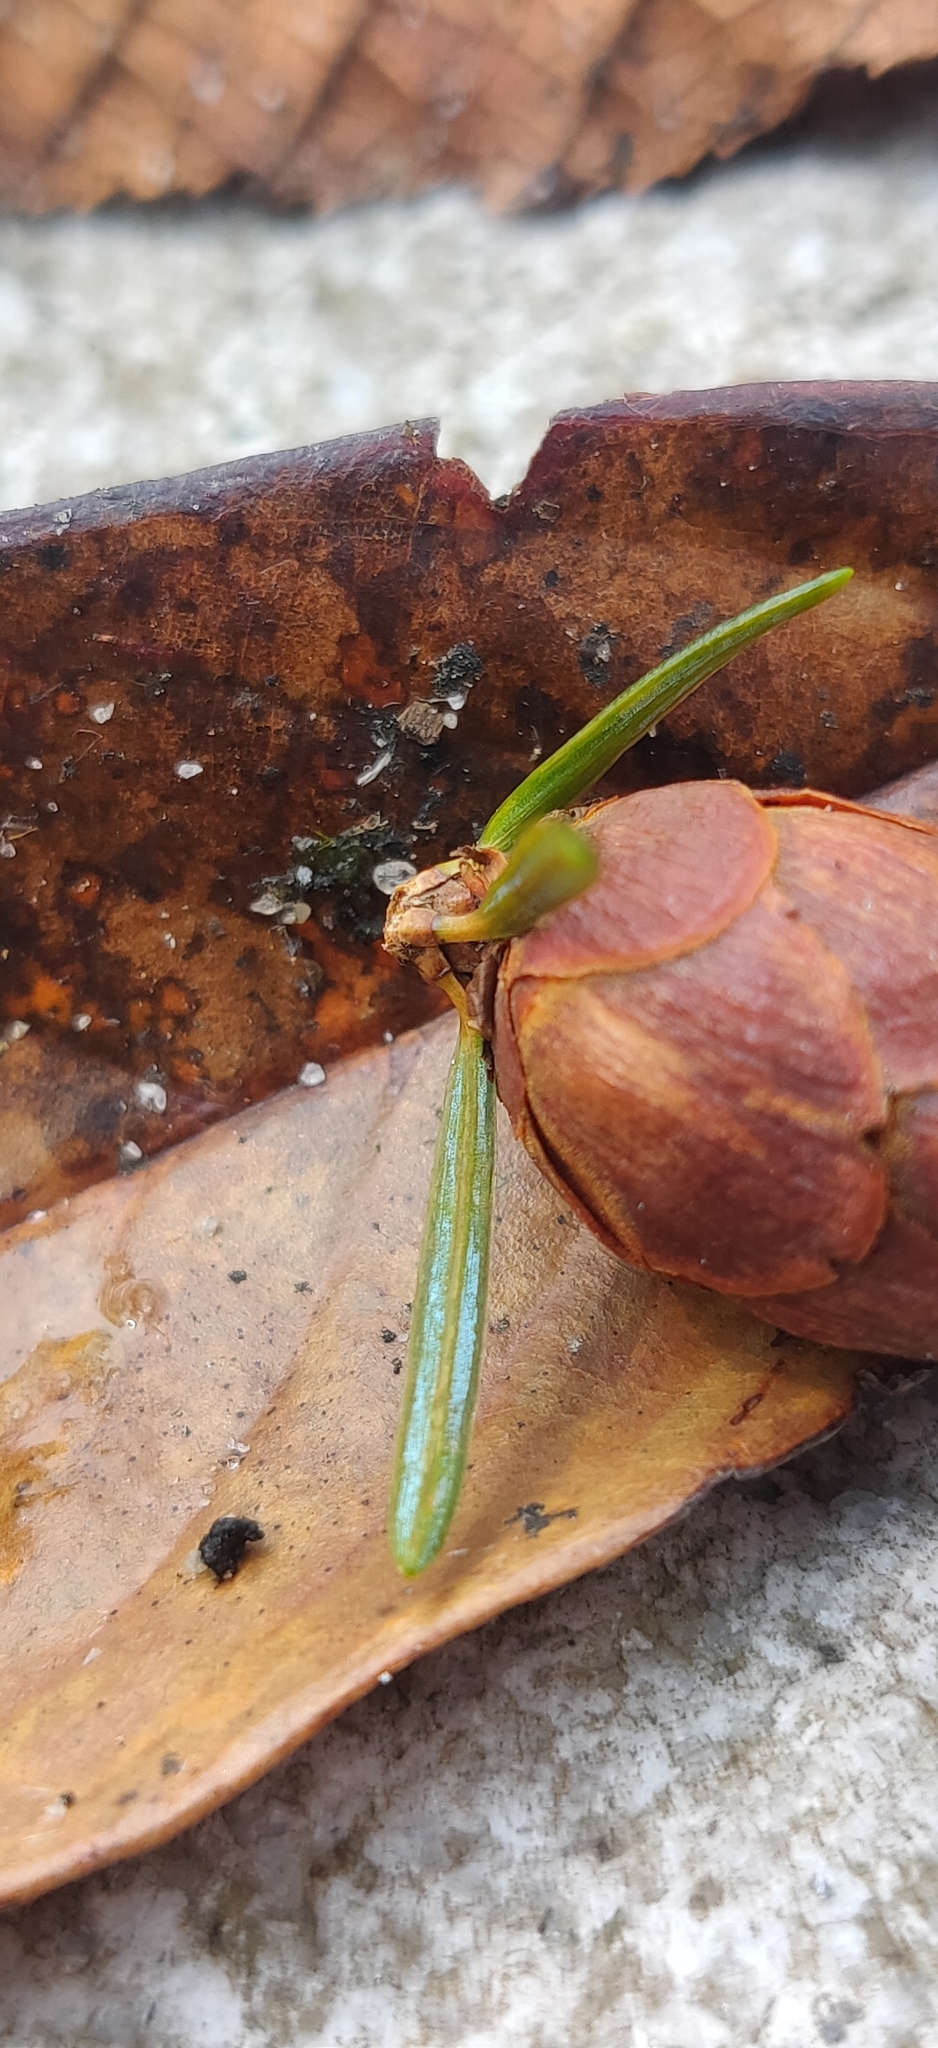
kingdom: Plantae
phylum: Tracheophyta
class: Pinopsida
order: Pinales
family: Pinaceae
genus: Tsuga
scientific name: Tsuga dumosa
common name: Himalayan hemlock
